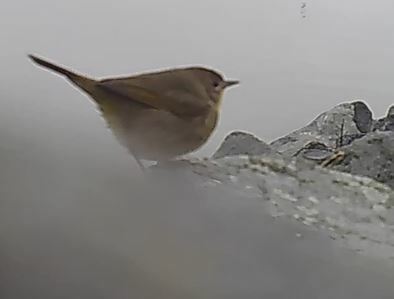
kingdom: Animalia
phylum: Chordata
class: Aves
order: Passeriformes
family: Parulidae
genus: Geothlypis
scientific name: Geothlypis trichas
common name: Common yellowthroat
